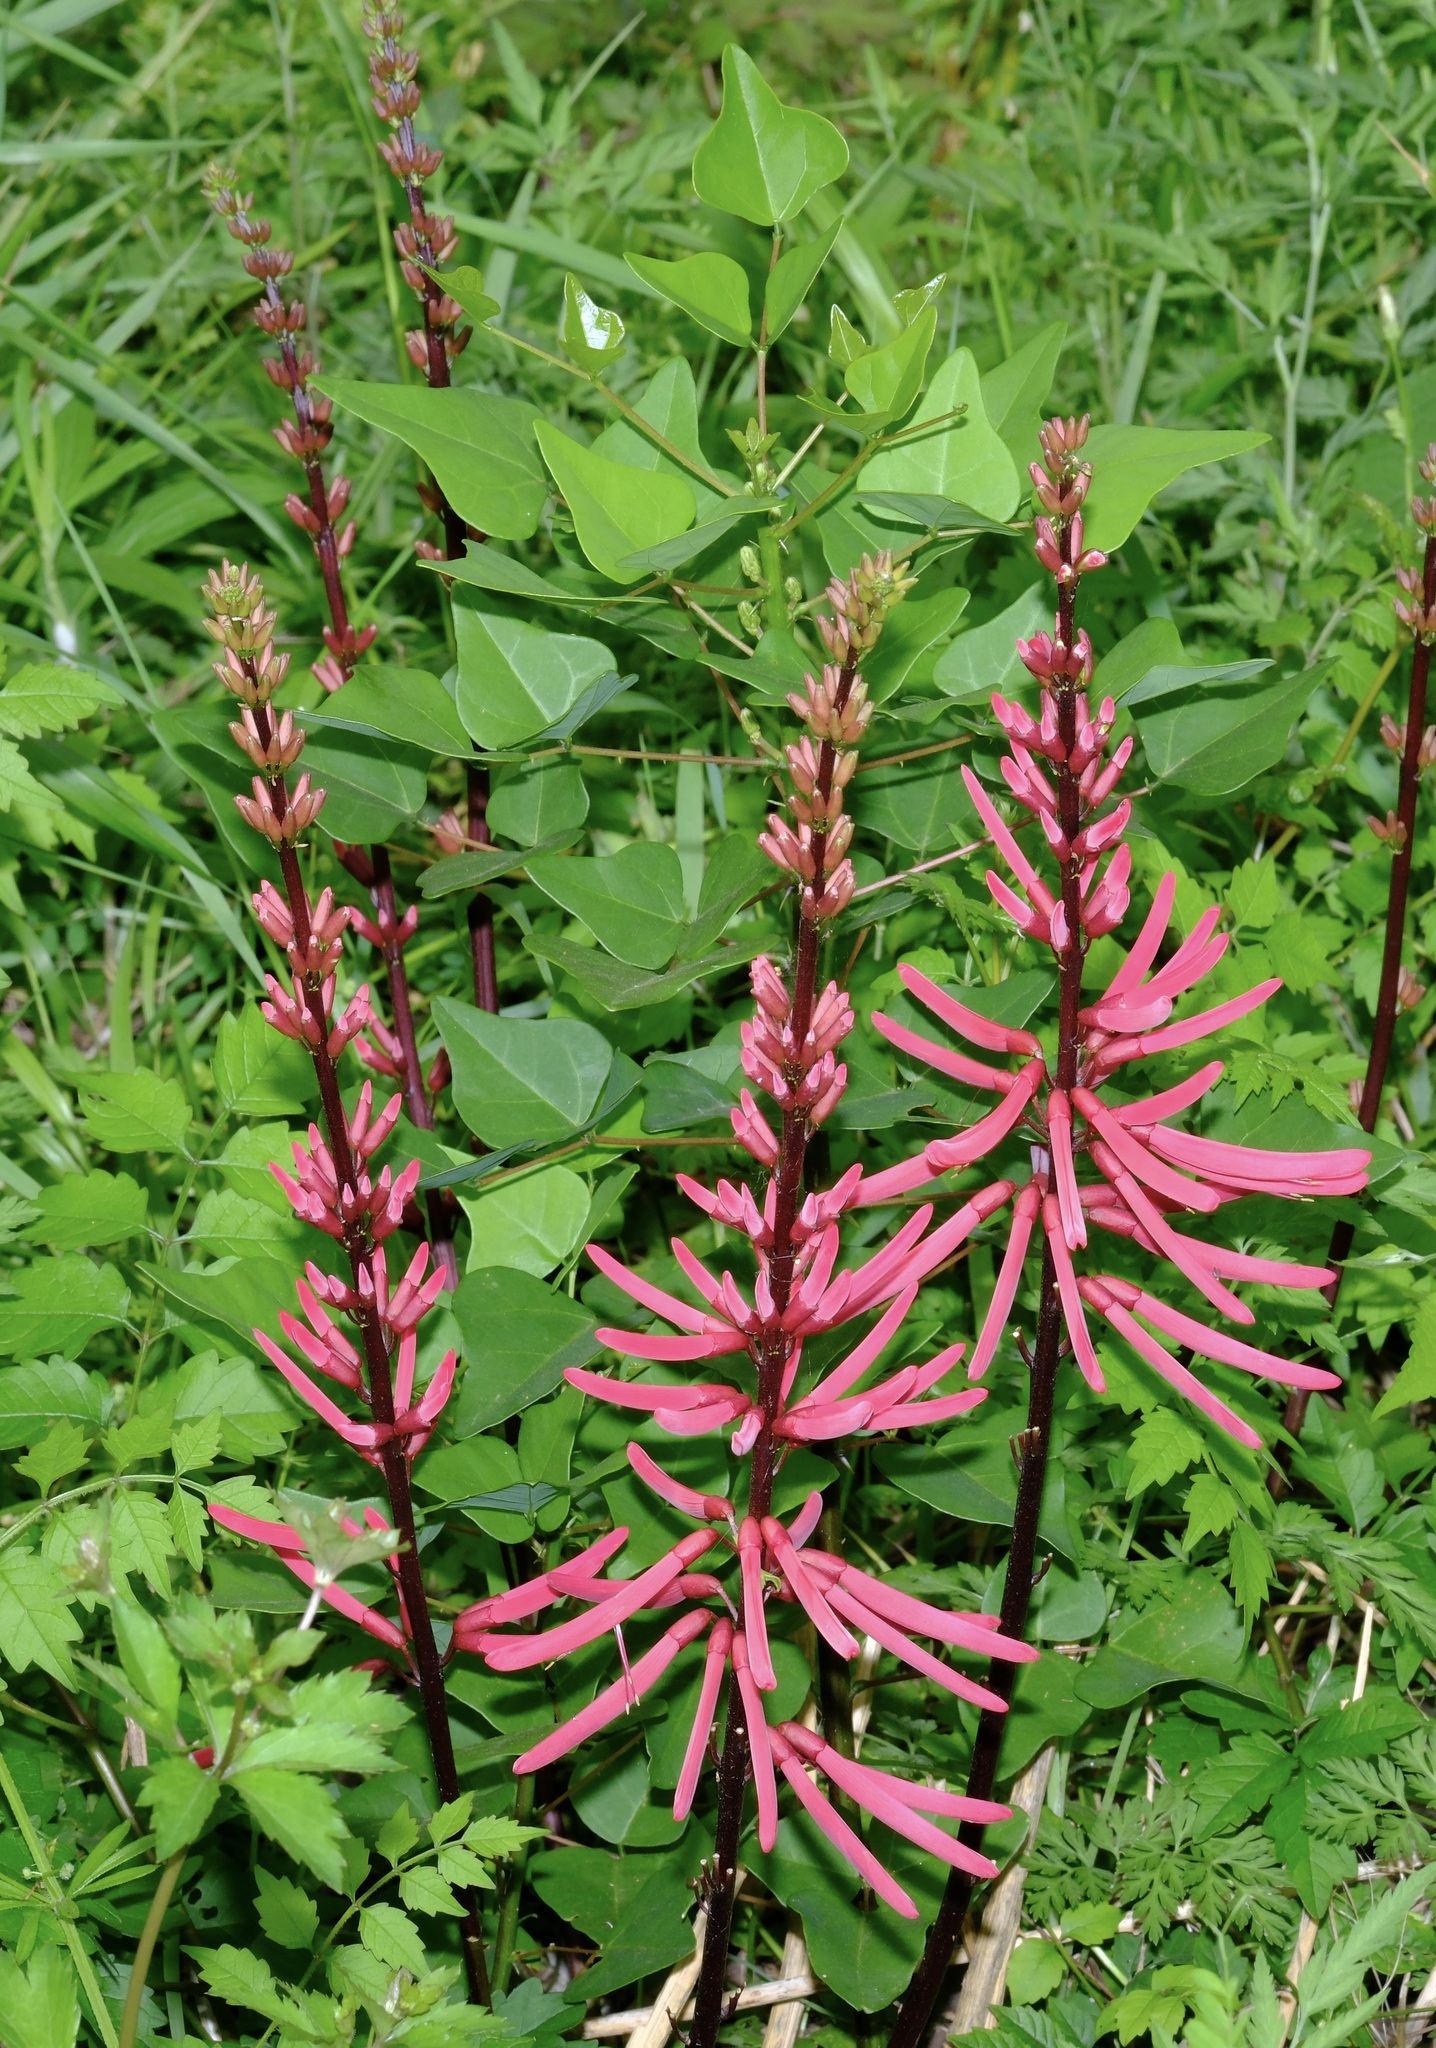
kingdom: Plantae
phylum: Tracheophyta
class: Magnoliopsida
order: Fabales
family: Fabaceae
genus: Erythrina
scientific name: Erythrina herbacea
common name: Coral-bean
